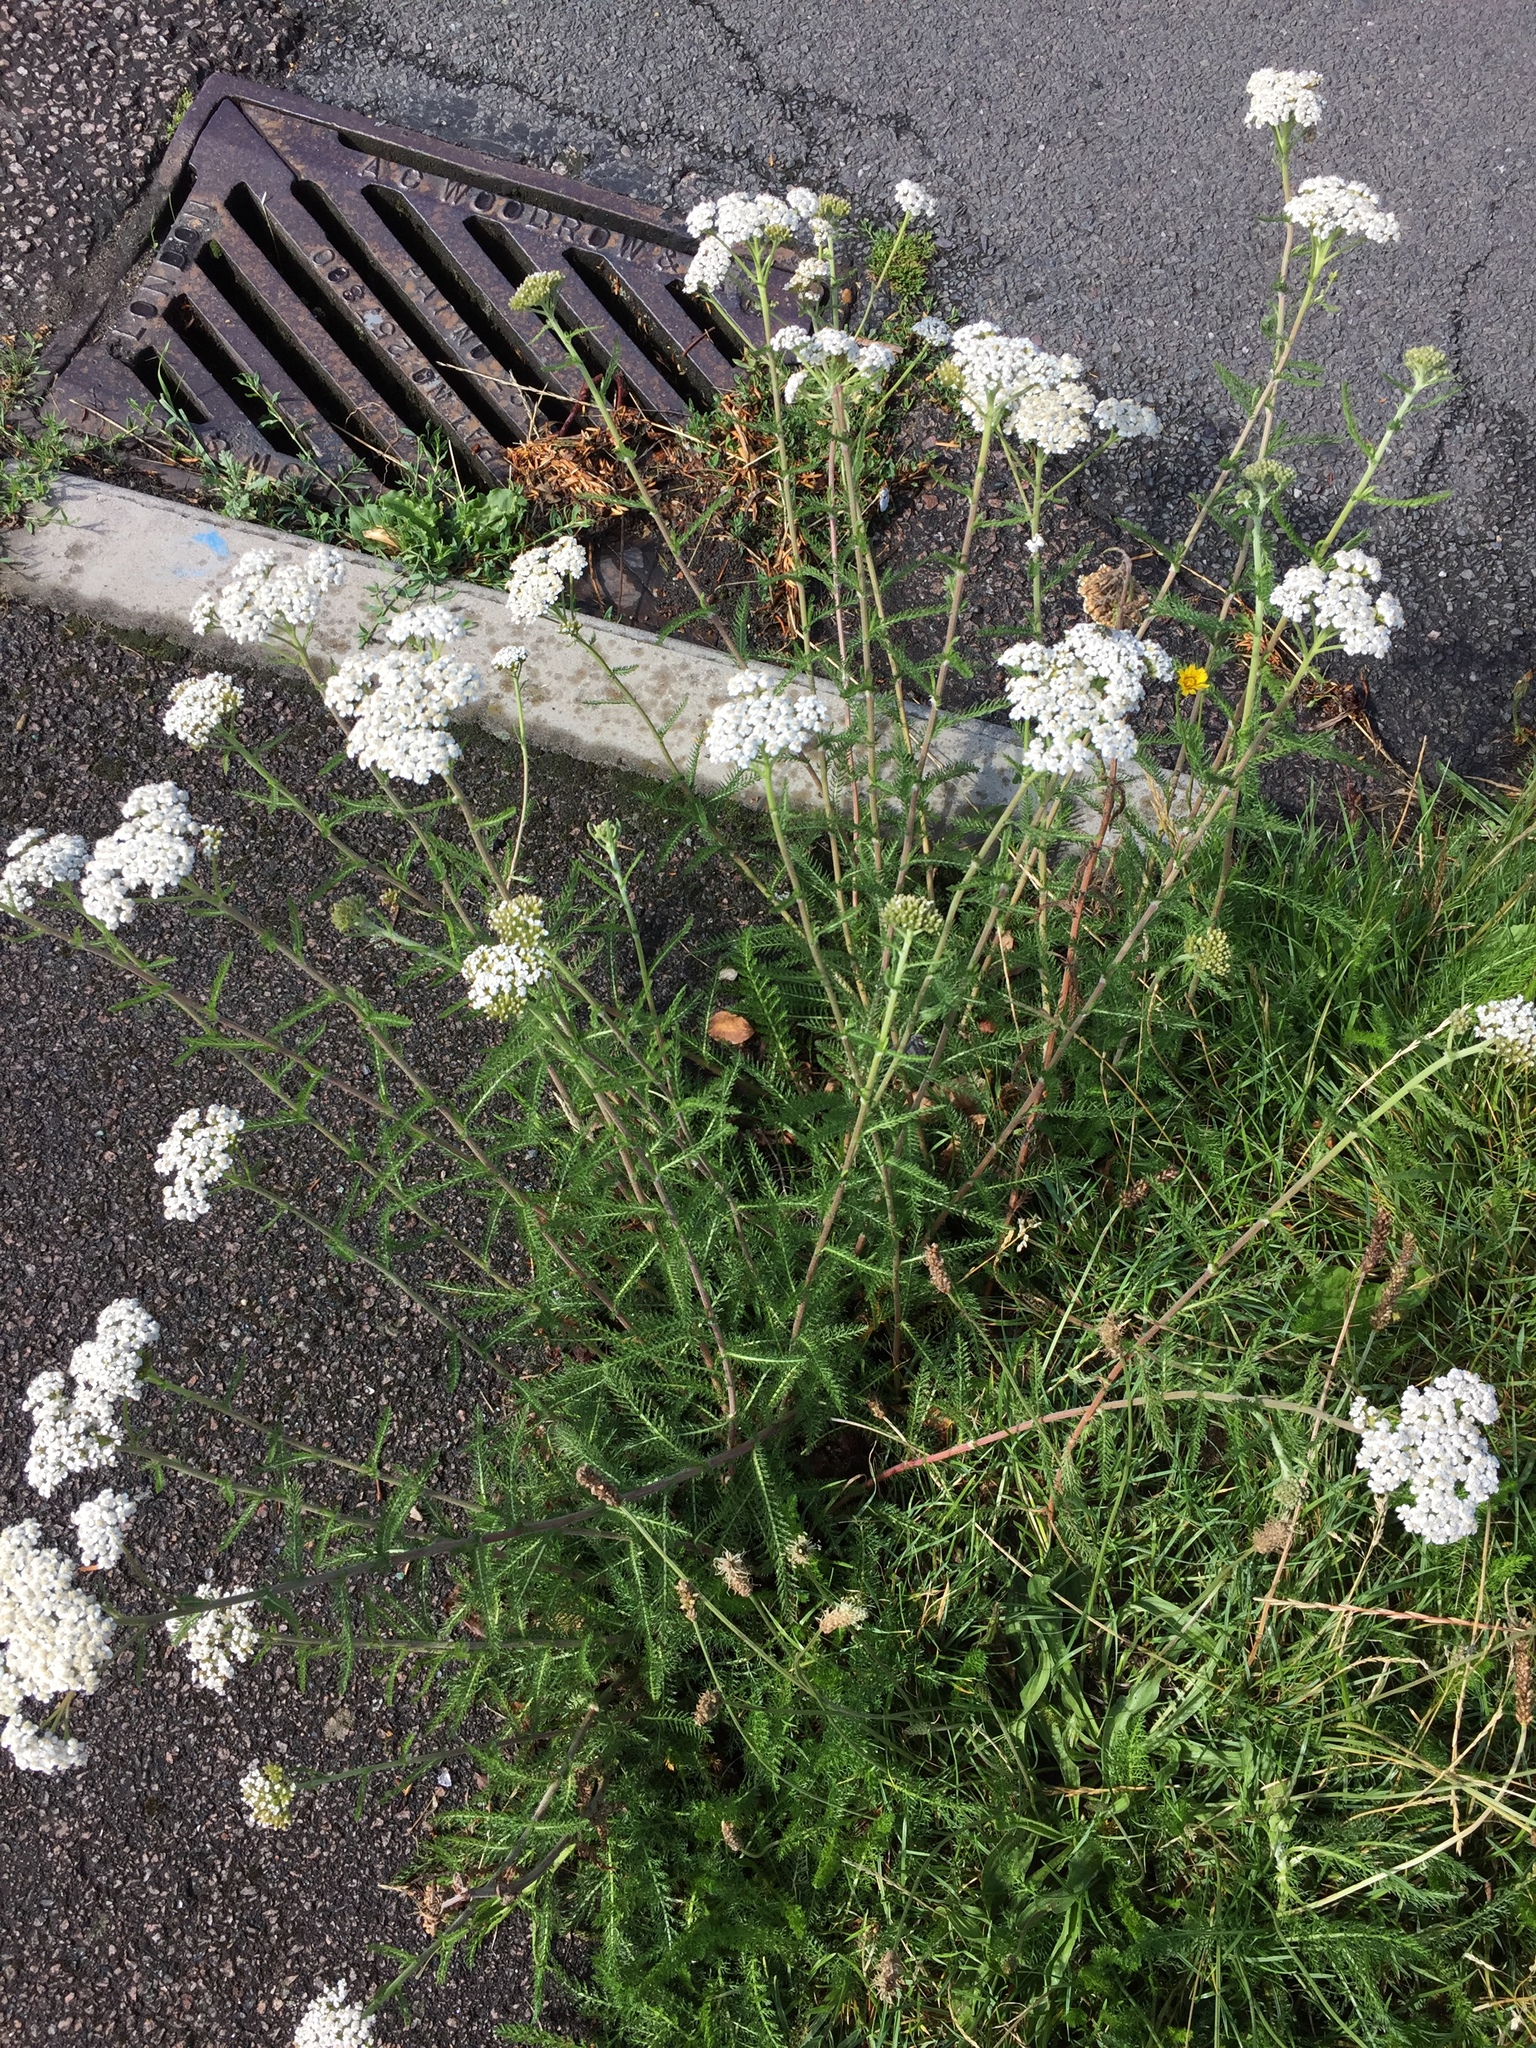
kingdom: Plantae
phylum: Tracheophyta
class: Magnoliopsida
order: Asterales
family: Asteraceae
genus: Achillea
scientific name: Achillea millefolium
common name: Yarrow
